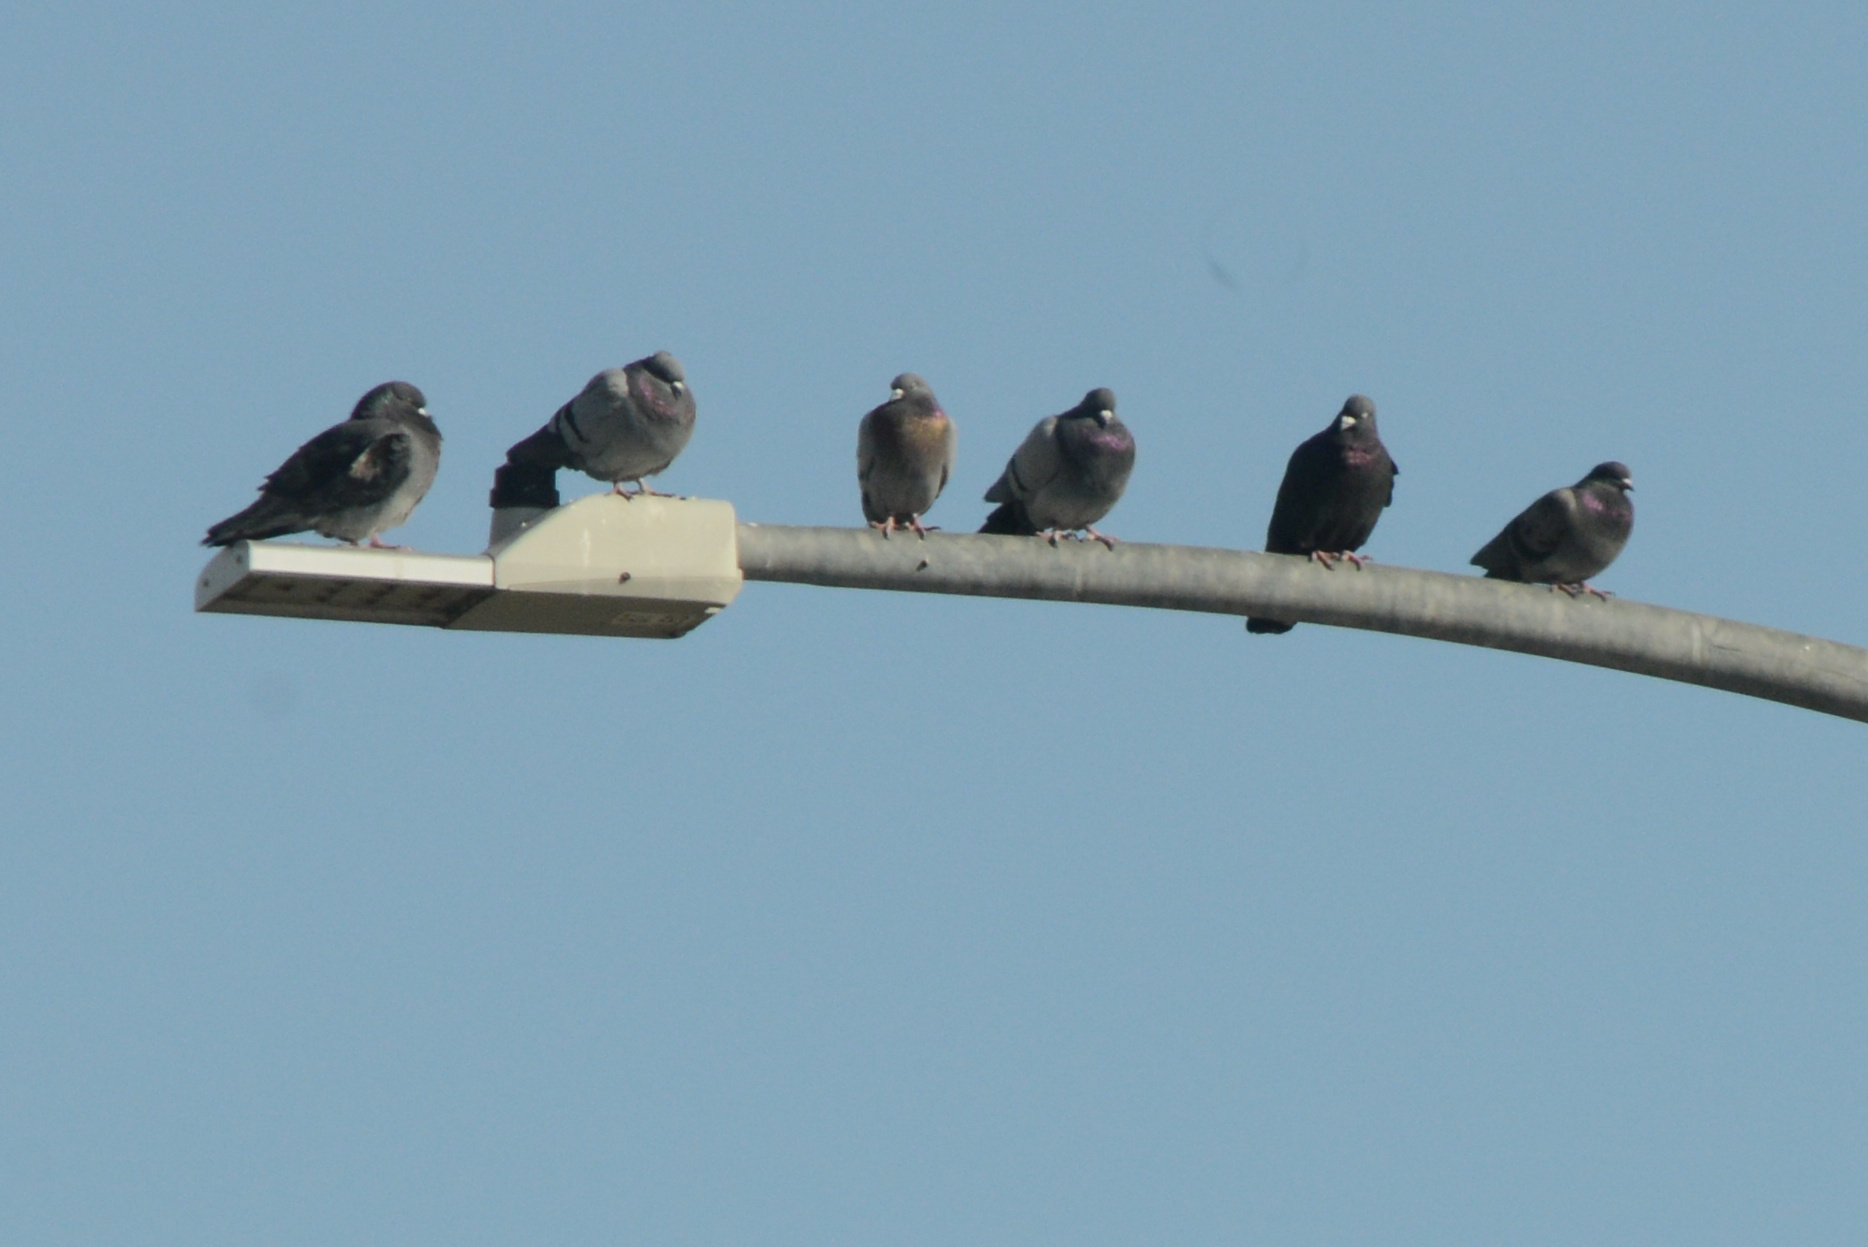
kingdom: Animalia
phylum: Chordata
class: Aves
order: Columbiformes
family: Columbidae
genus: Columba
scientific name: Columba livia
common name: Rock pigeon
